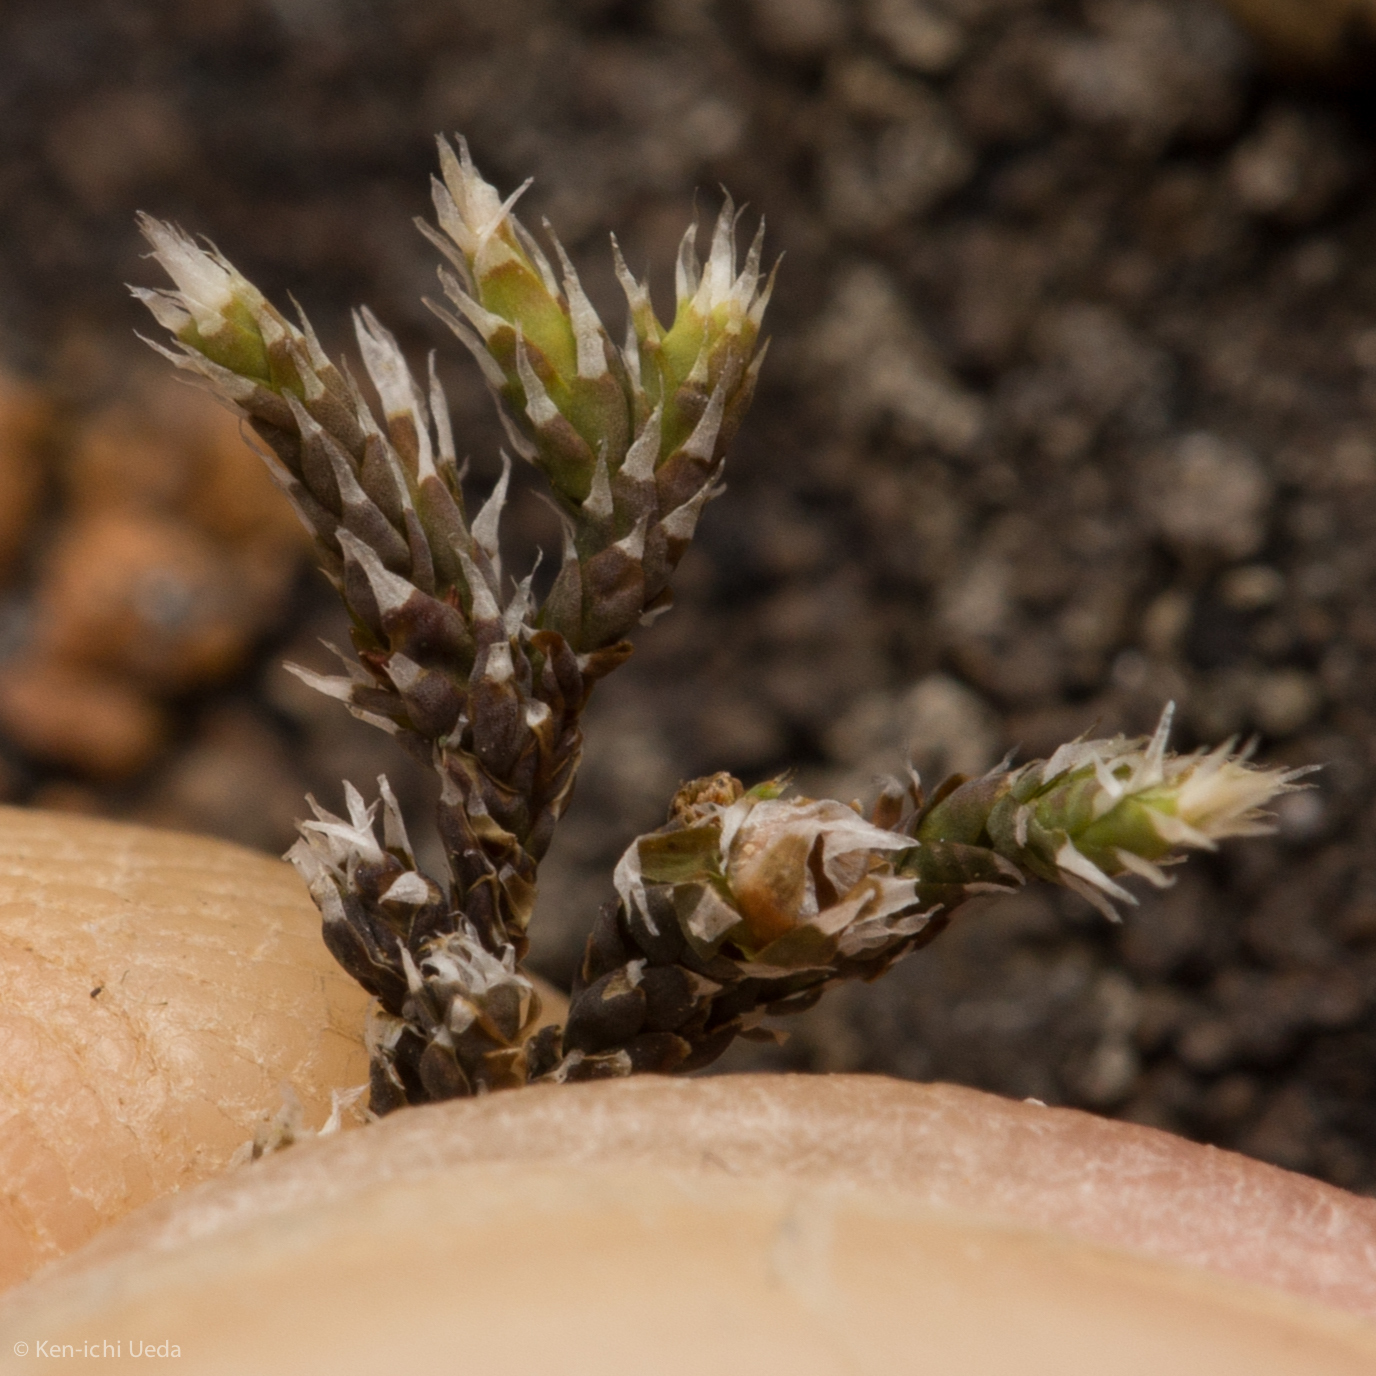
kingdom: Plantae
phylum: Bryophyta
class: Bryopsida
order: Hedwigiales
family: Hedwigiaceae
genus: Hedwigia
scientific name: Hedwigia detonsa
